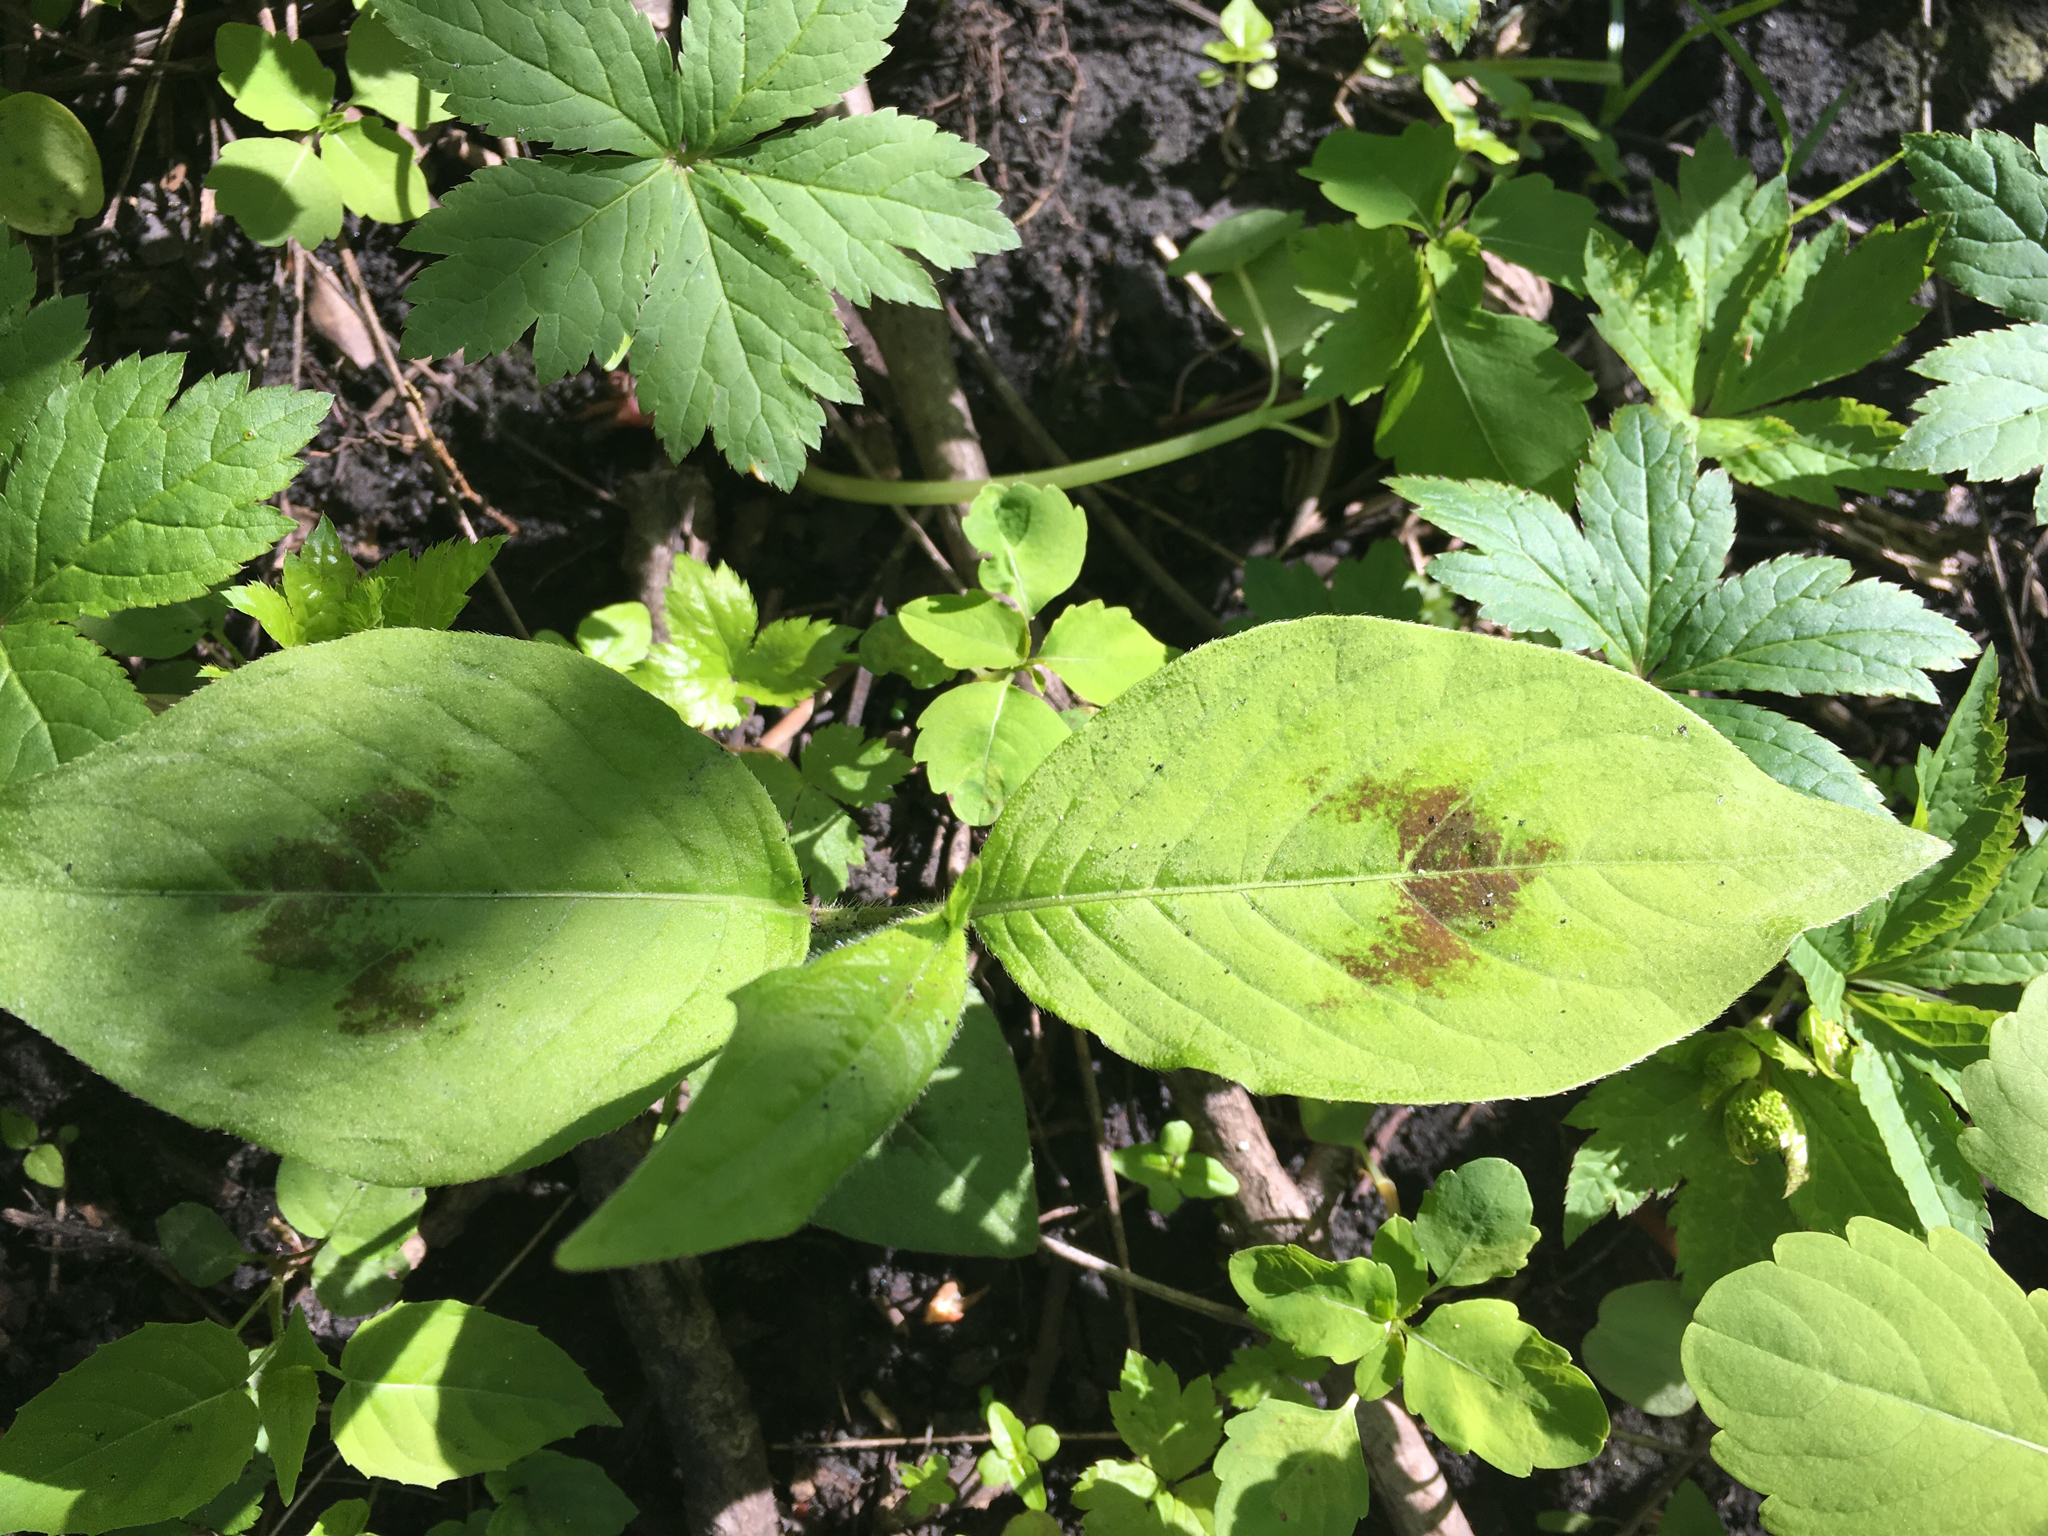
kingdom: Plantae
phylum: Tracheophyta
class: Magnoliopsida
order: Caryophyllales
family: Polygonaceae
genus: Persicaria
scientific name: Persicaria virginiana
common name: Jumpseed
